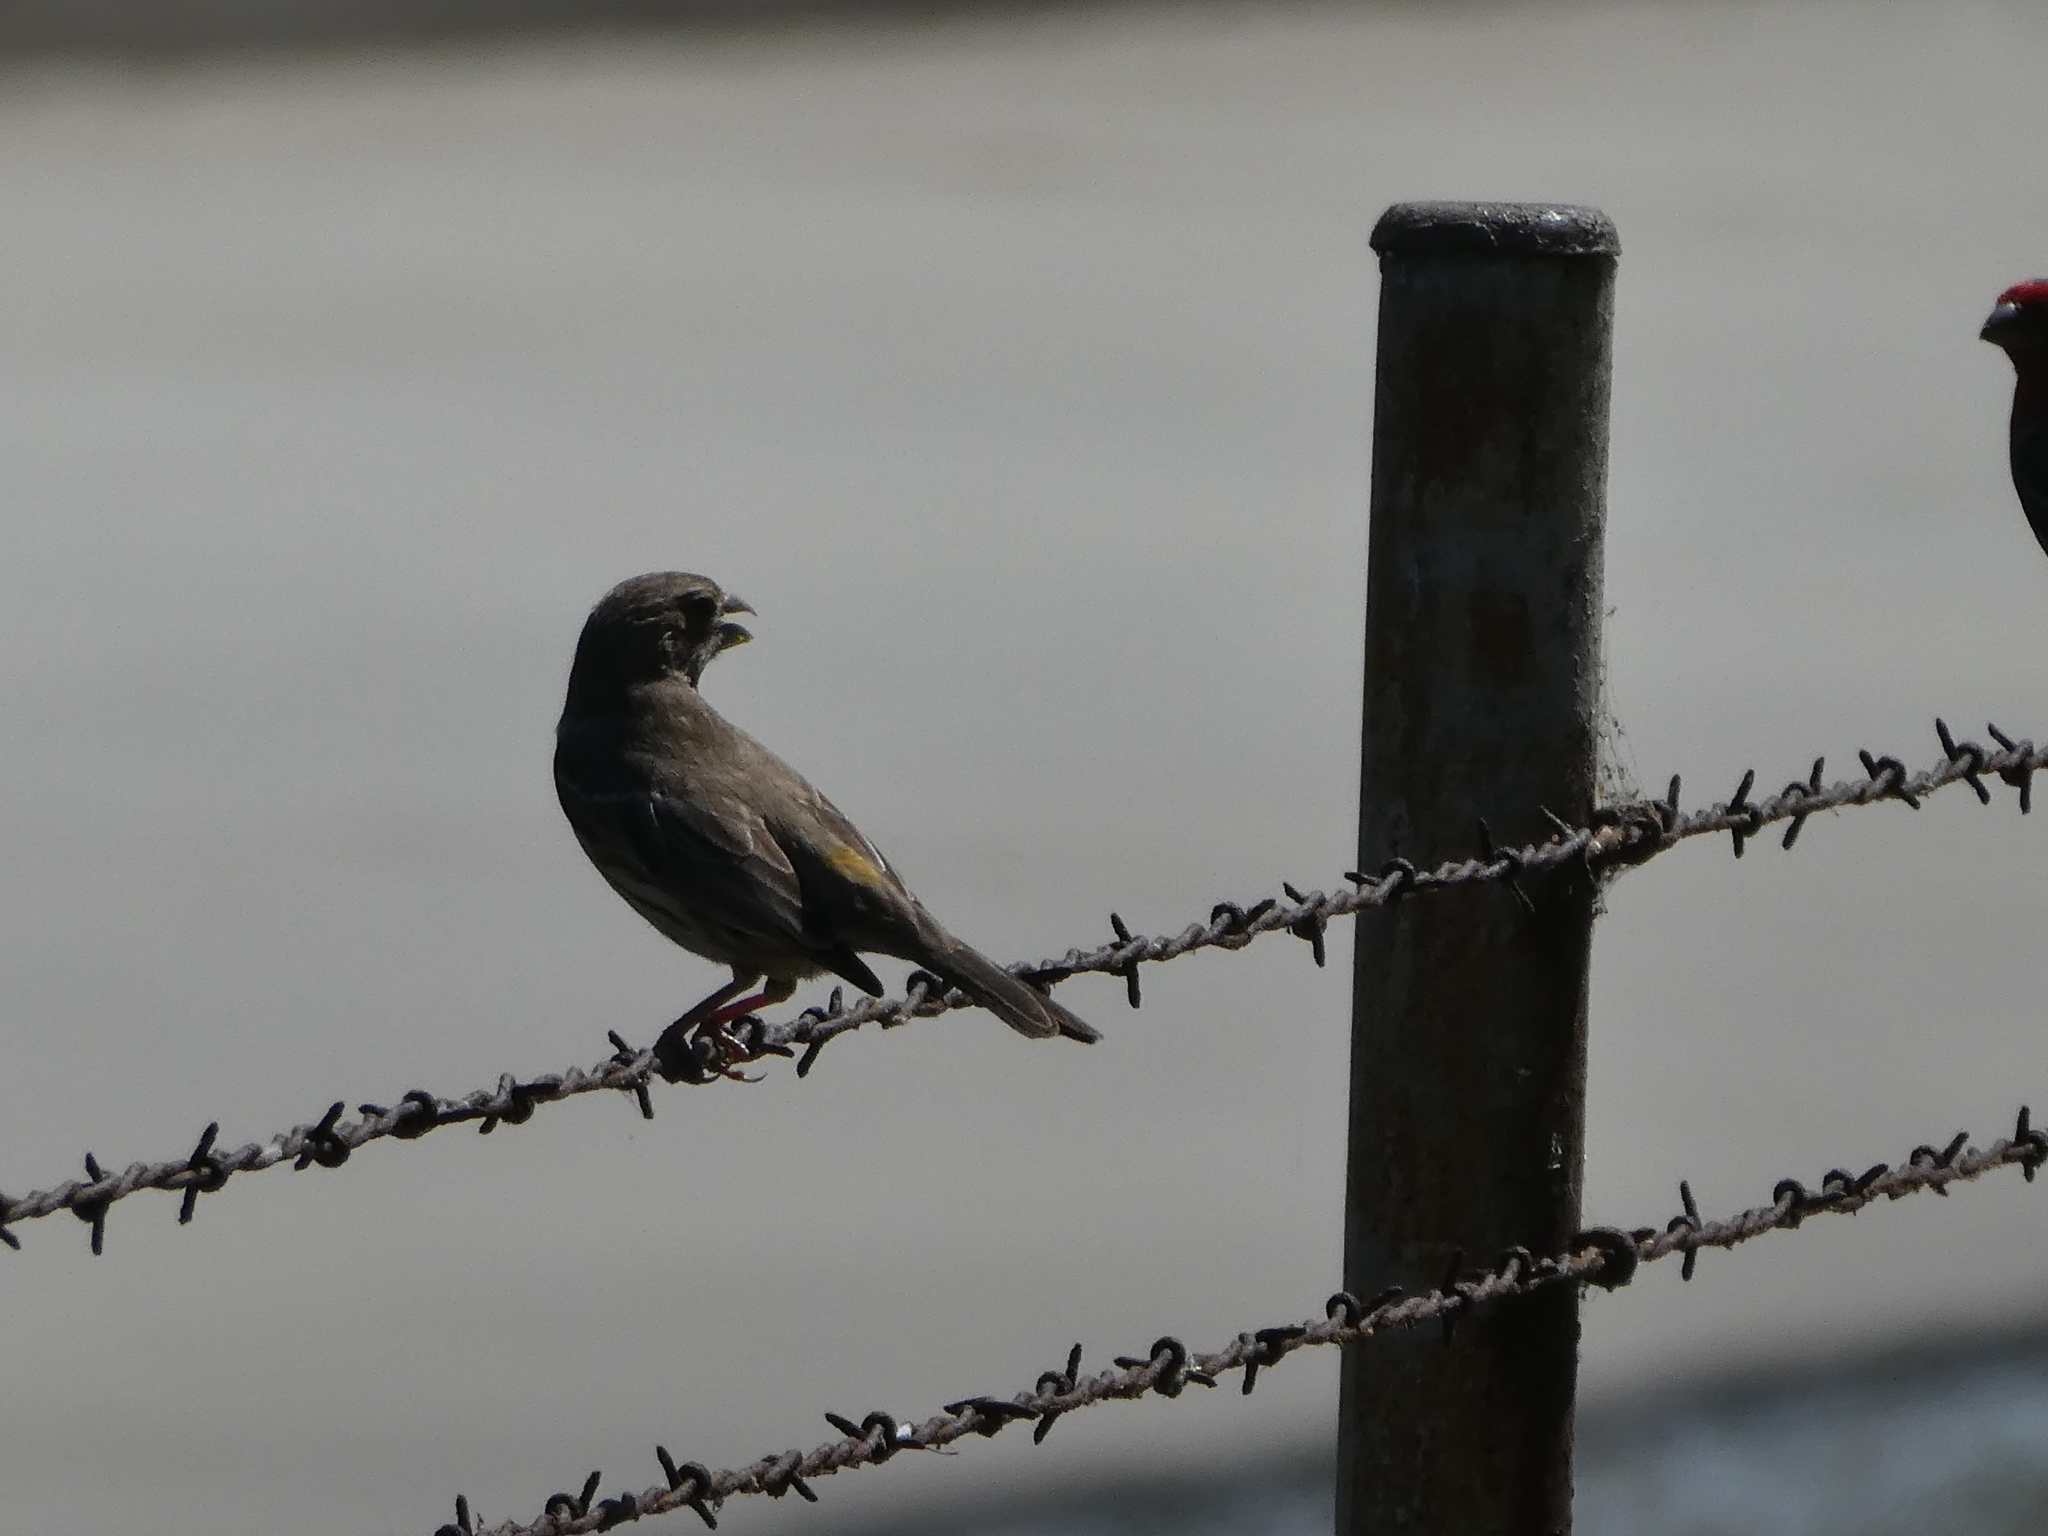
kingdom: Animalia
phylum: Chordata
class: Aves
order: Passeriformes
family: Fringillidae
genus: Haemorhous
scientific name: Haemorhous mexicanus
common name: House finch
